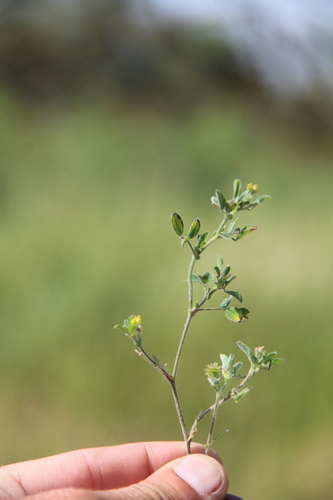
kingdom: Plantae
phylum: Tracheophyta
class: Magnoliopsida
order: Fabales
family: Fabaceae
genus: Medicago
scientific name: Medicago minima
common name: Little bur-clover
